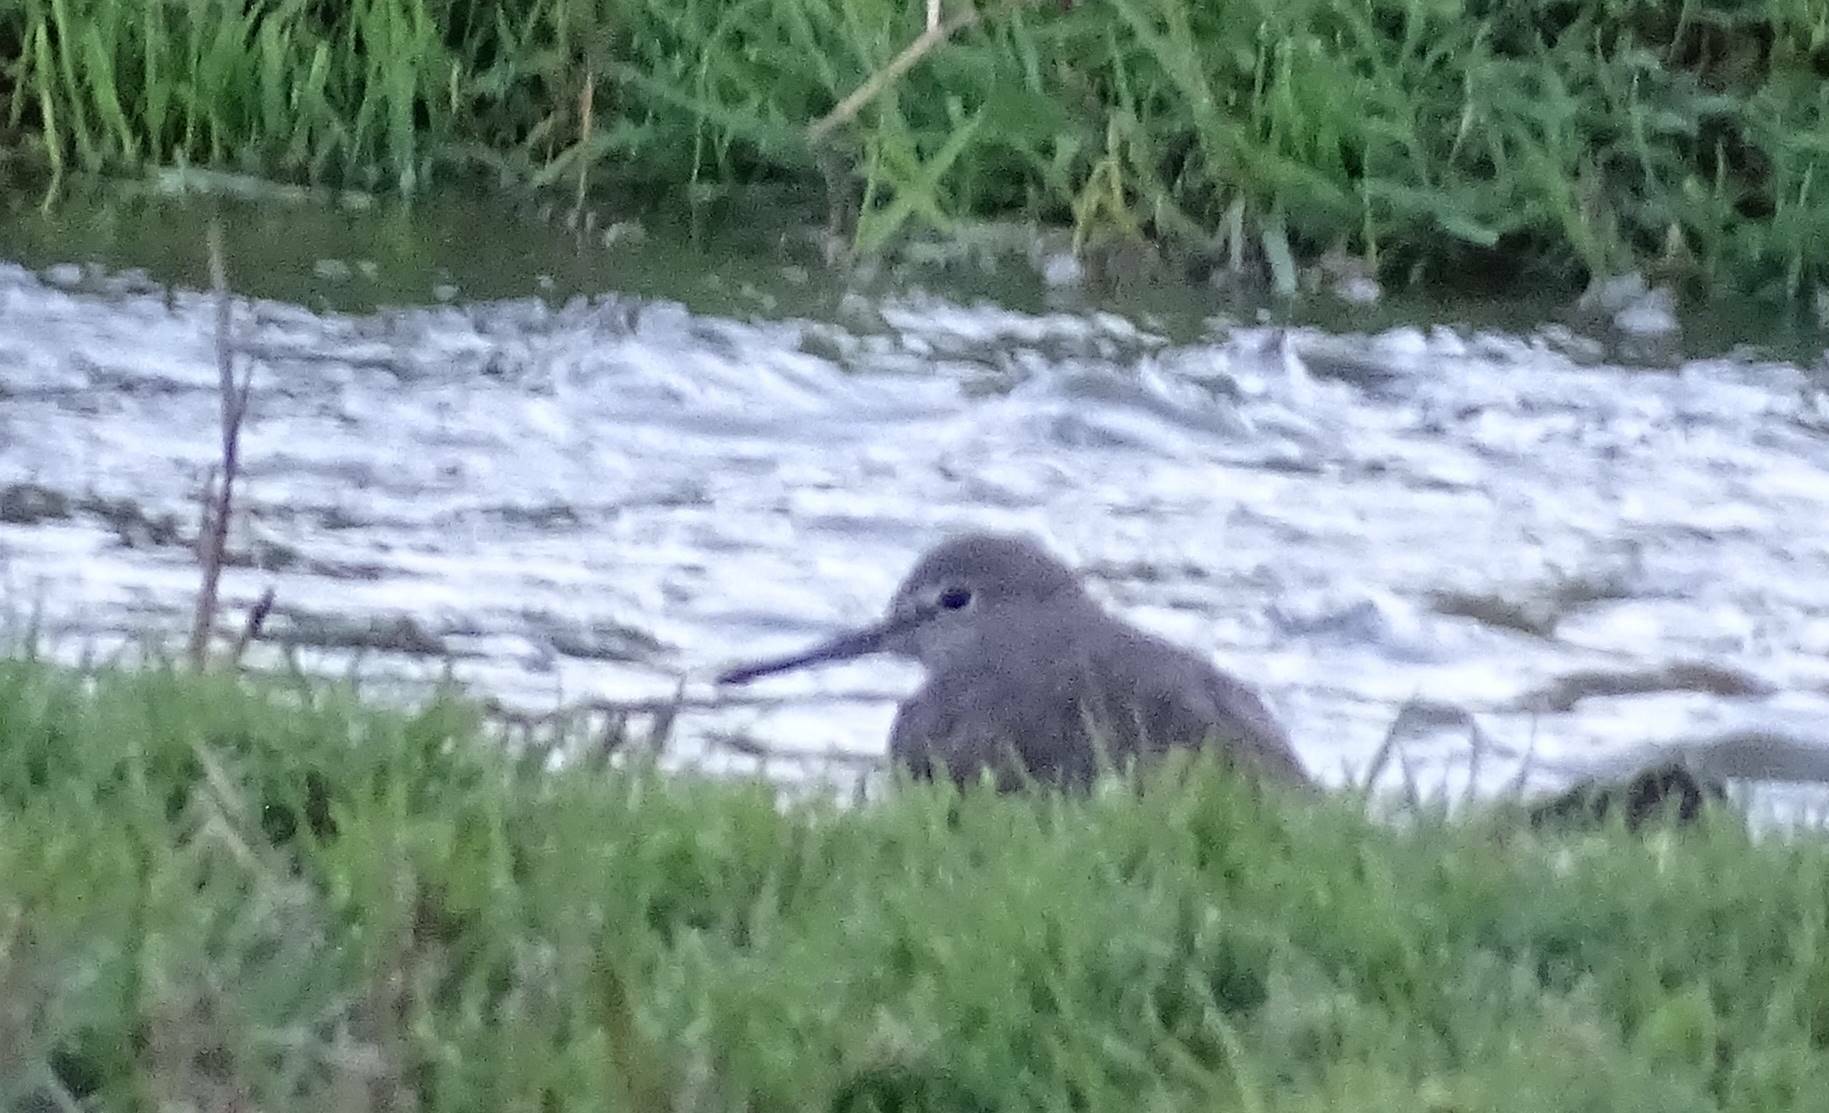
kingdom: Animalia
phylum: Chordata
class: Aves
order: Charadriiformes
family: Scolopacidae
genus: Tringa
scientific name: Tringa ochropus
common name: Green sandpiper
